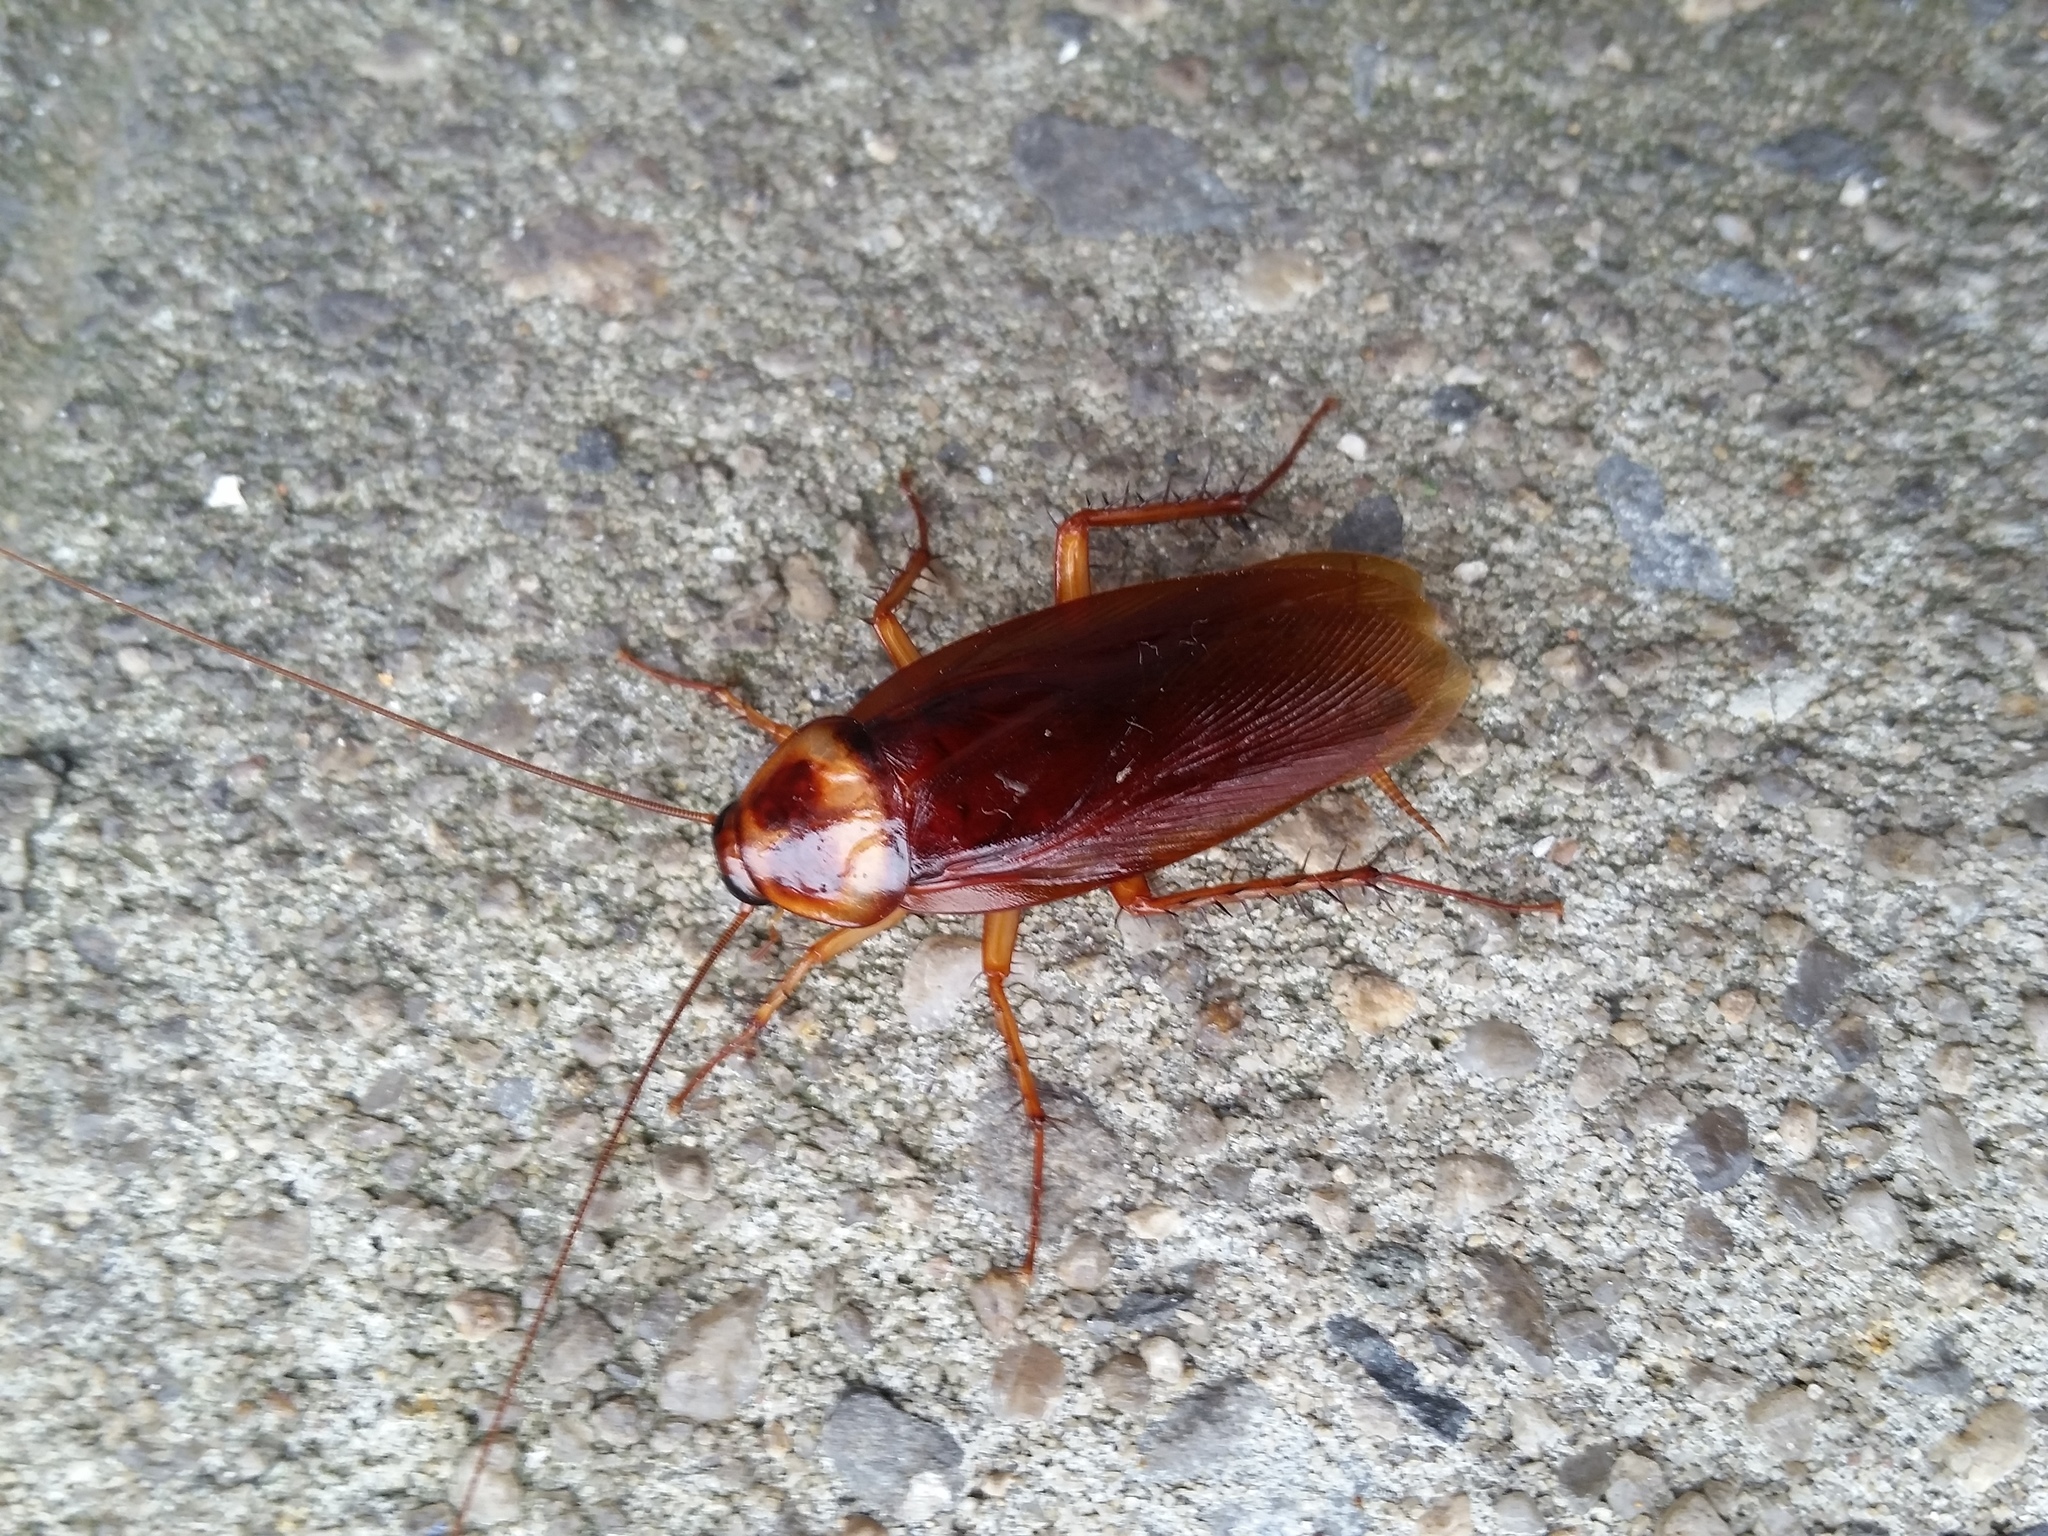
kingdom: Animalia
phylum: Arthropoda
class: Insecta
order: Blattodea
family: Blattidae
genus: Periplaneta
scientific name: Periplaneta americana
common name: American cockroach
